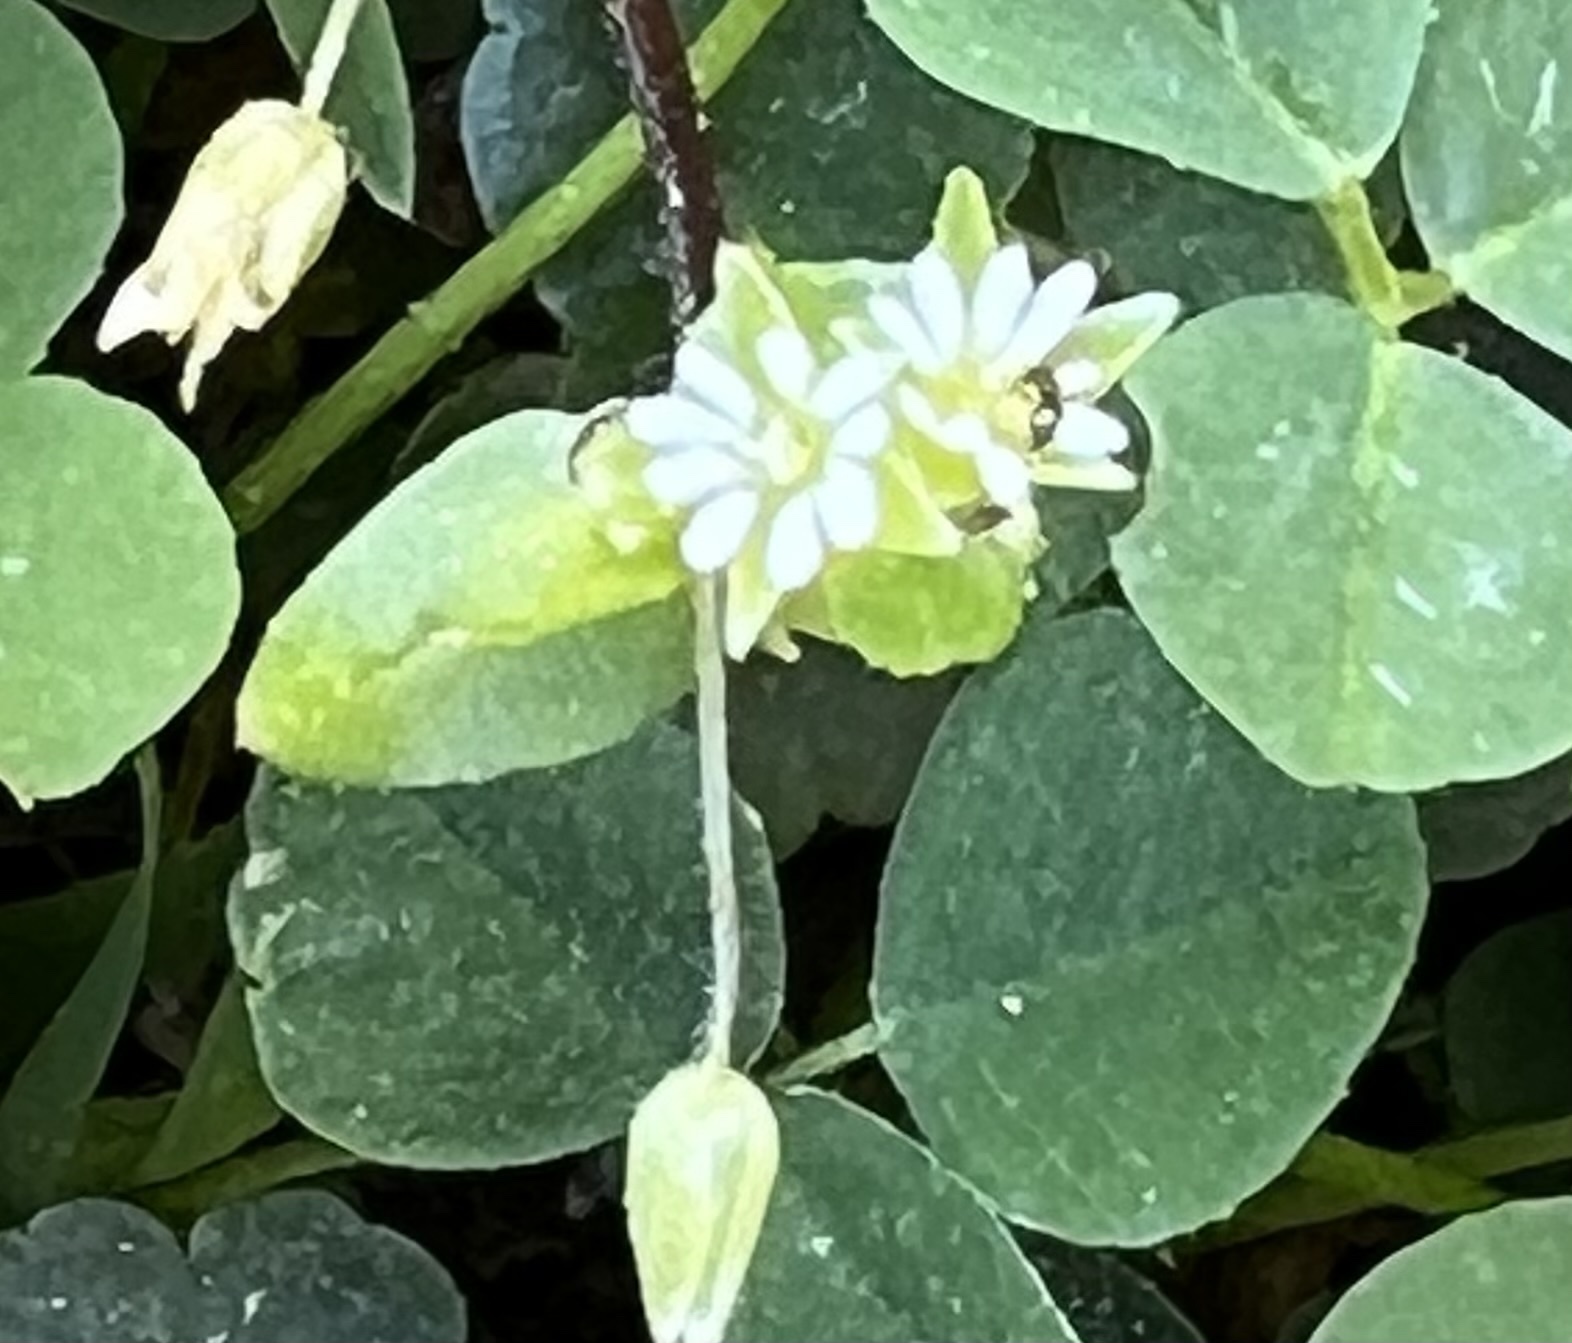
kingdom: Plantae
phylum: Tracheophyta
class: Magnoliopsida
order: Caryophyllales
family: Caryophyllaceae
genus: Stellaria
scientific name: Stellaria media
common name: Common chickweed
